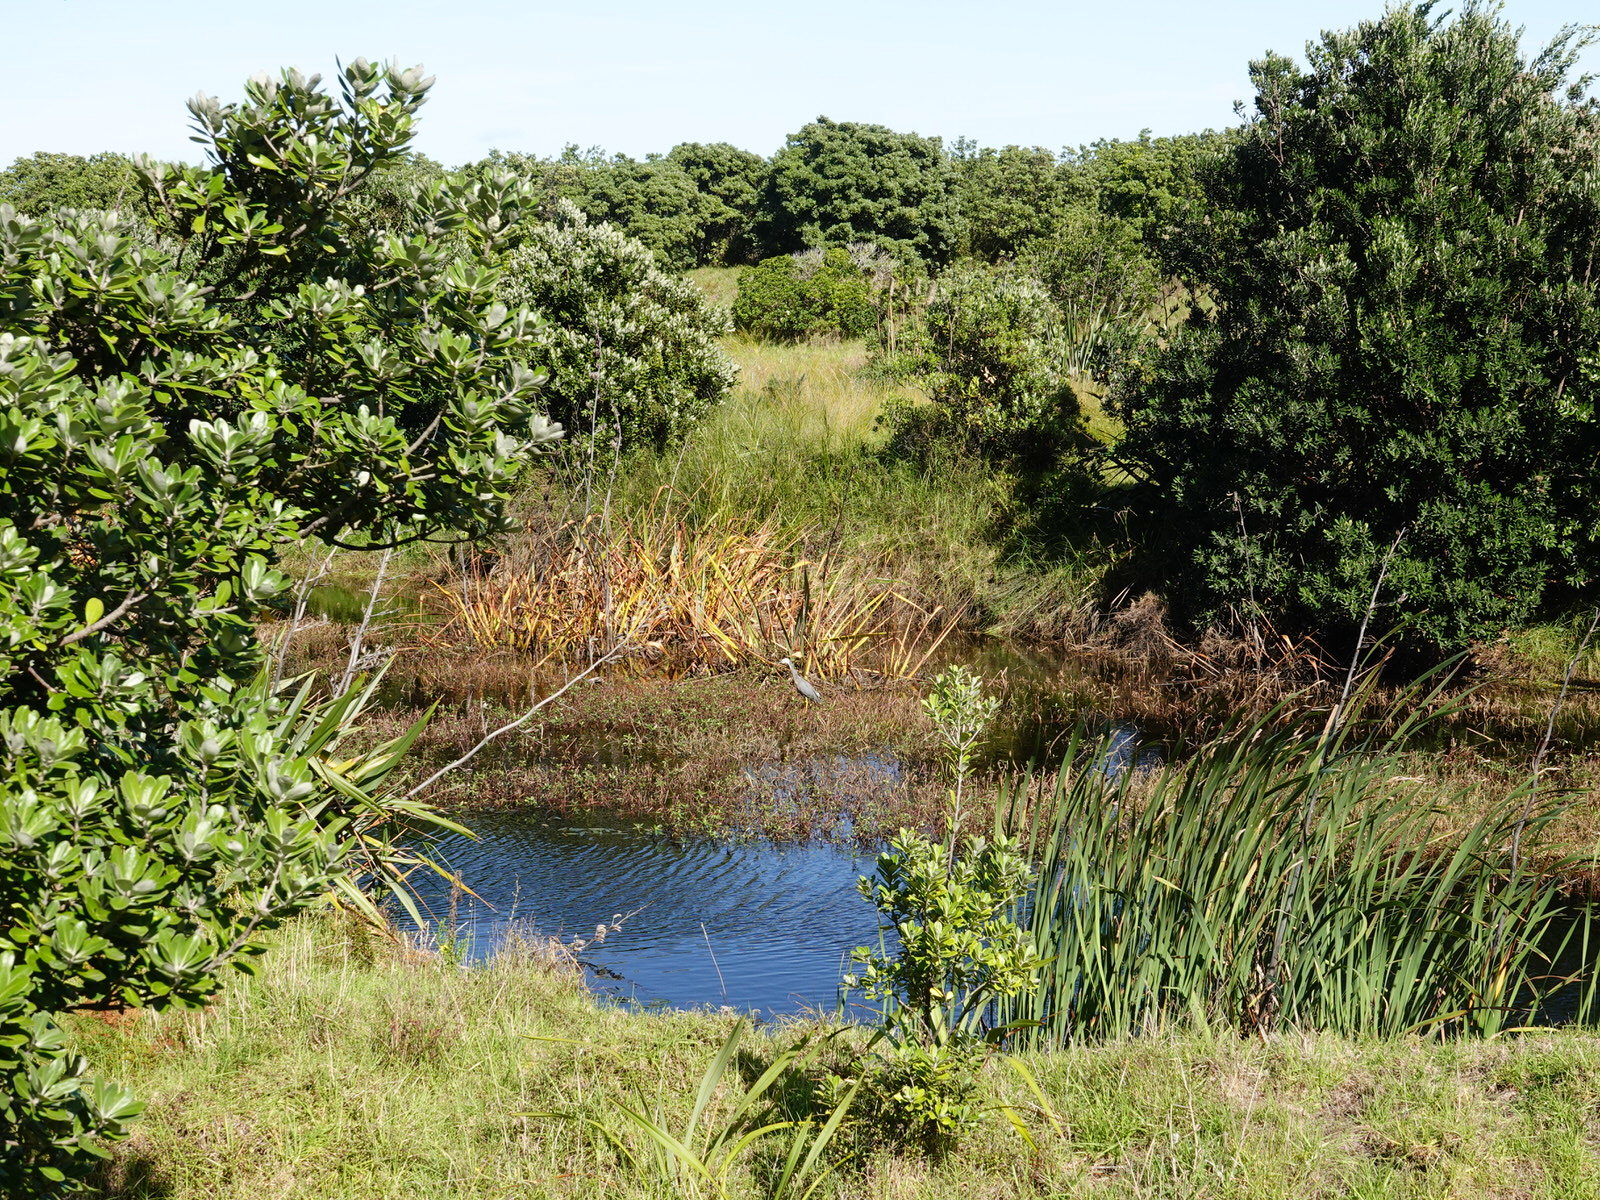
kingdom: Animalia
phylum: Chordata
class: Aves
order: Pelecaniformes
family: Ardeidae
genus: Egretta
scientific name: Egretta novaehollandiae
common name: White-faced heron
